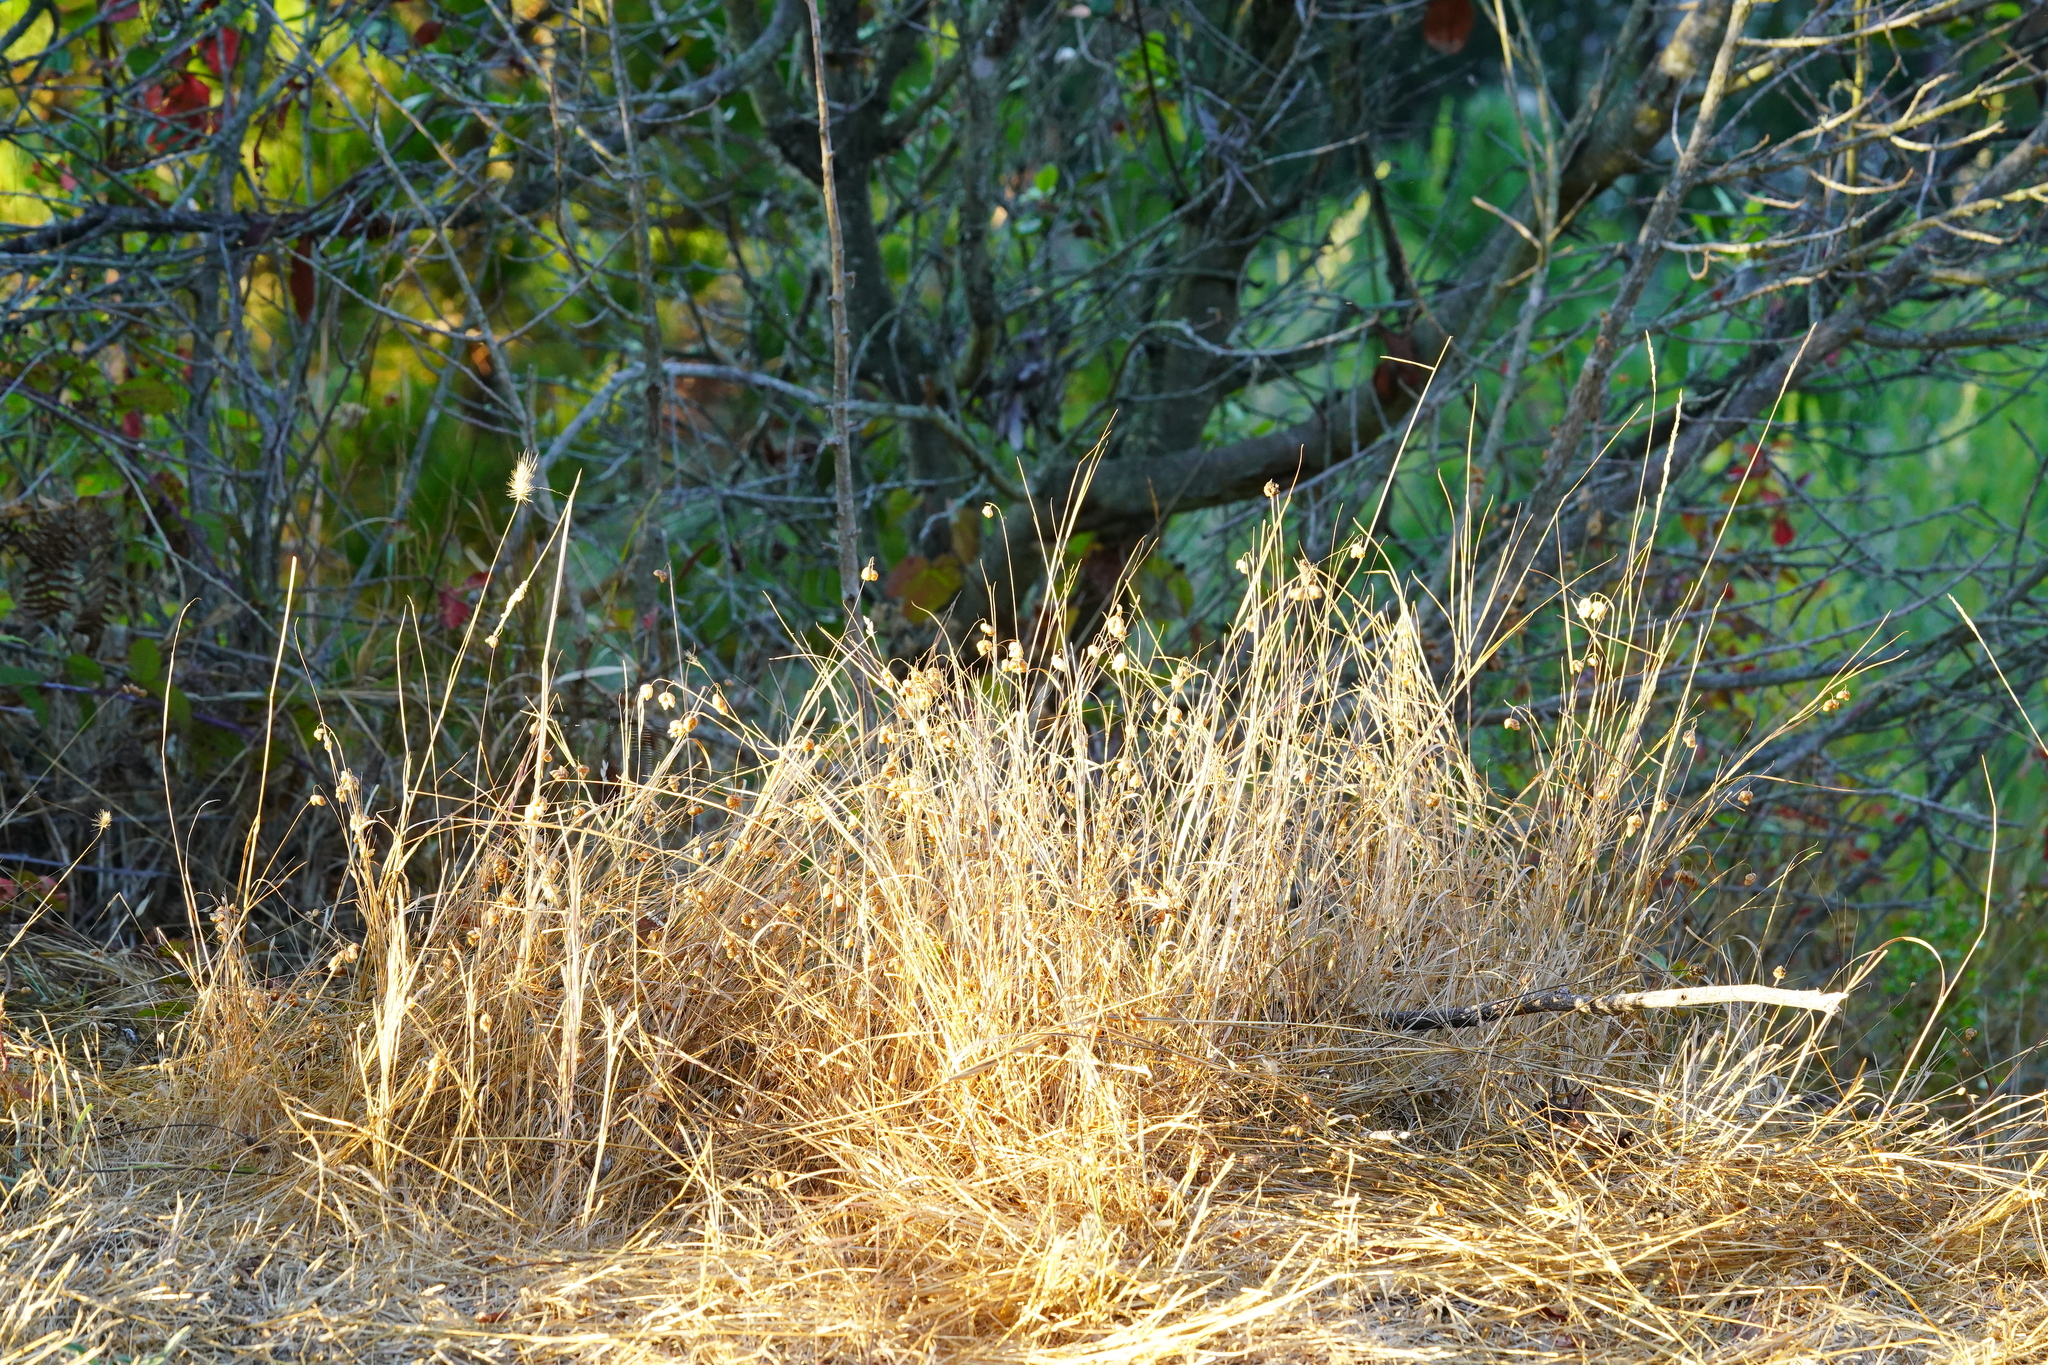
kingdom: Plantae
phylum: Tracheophyta
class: Liliopsida
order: Poales
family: Poaceae
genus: Briza
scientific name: Briza maxima
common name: Big quakinggrass
